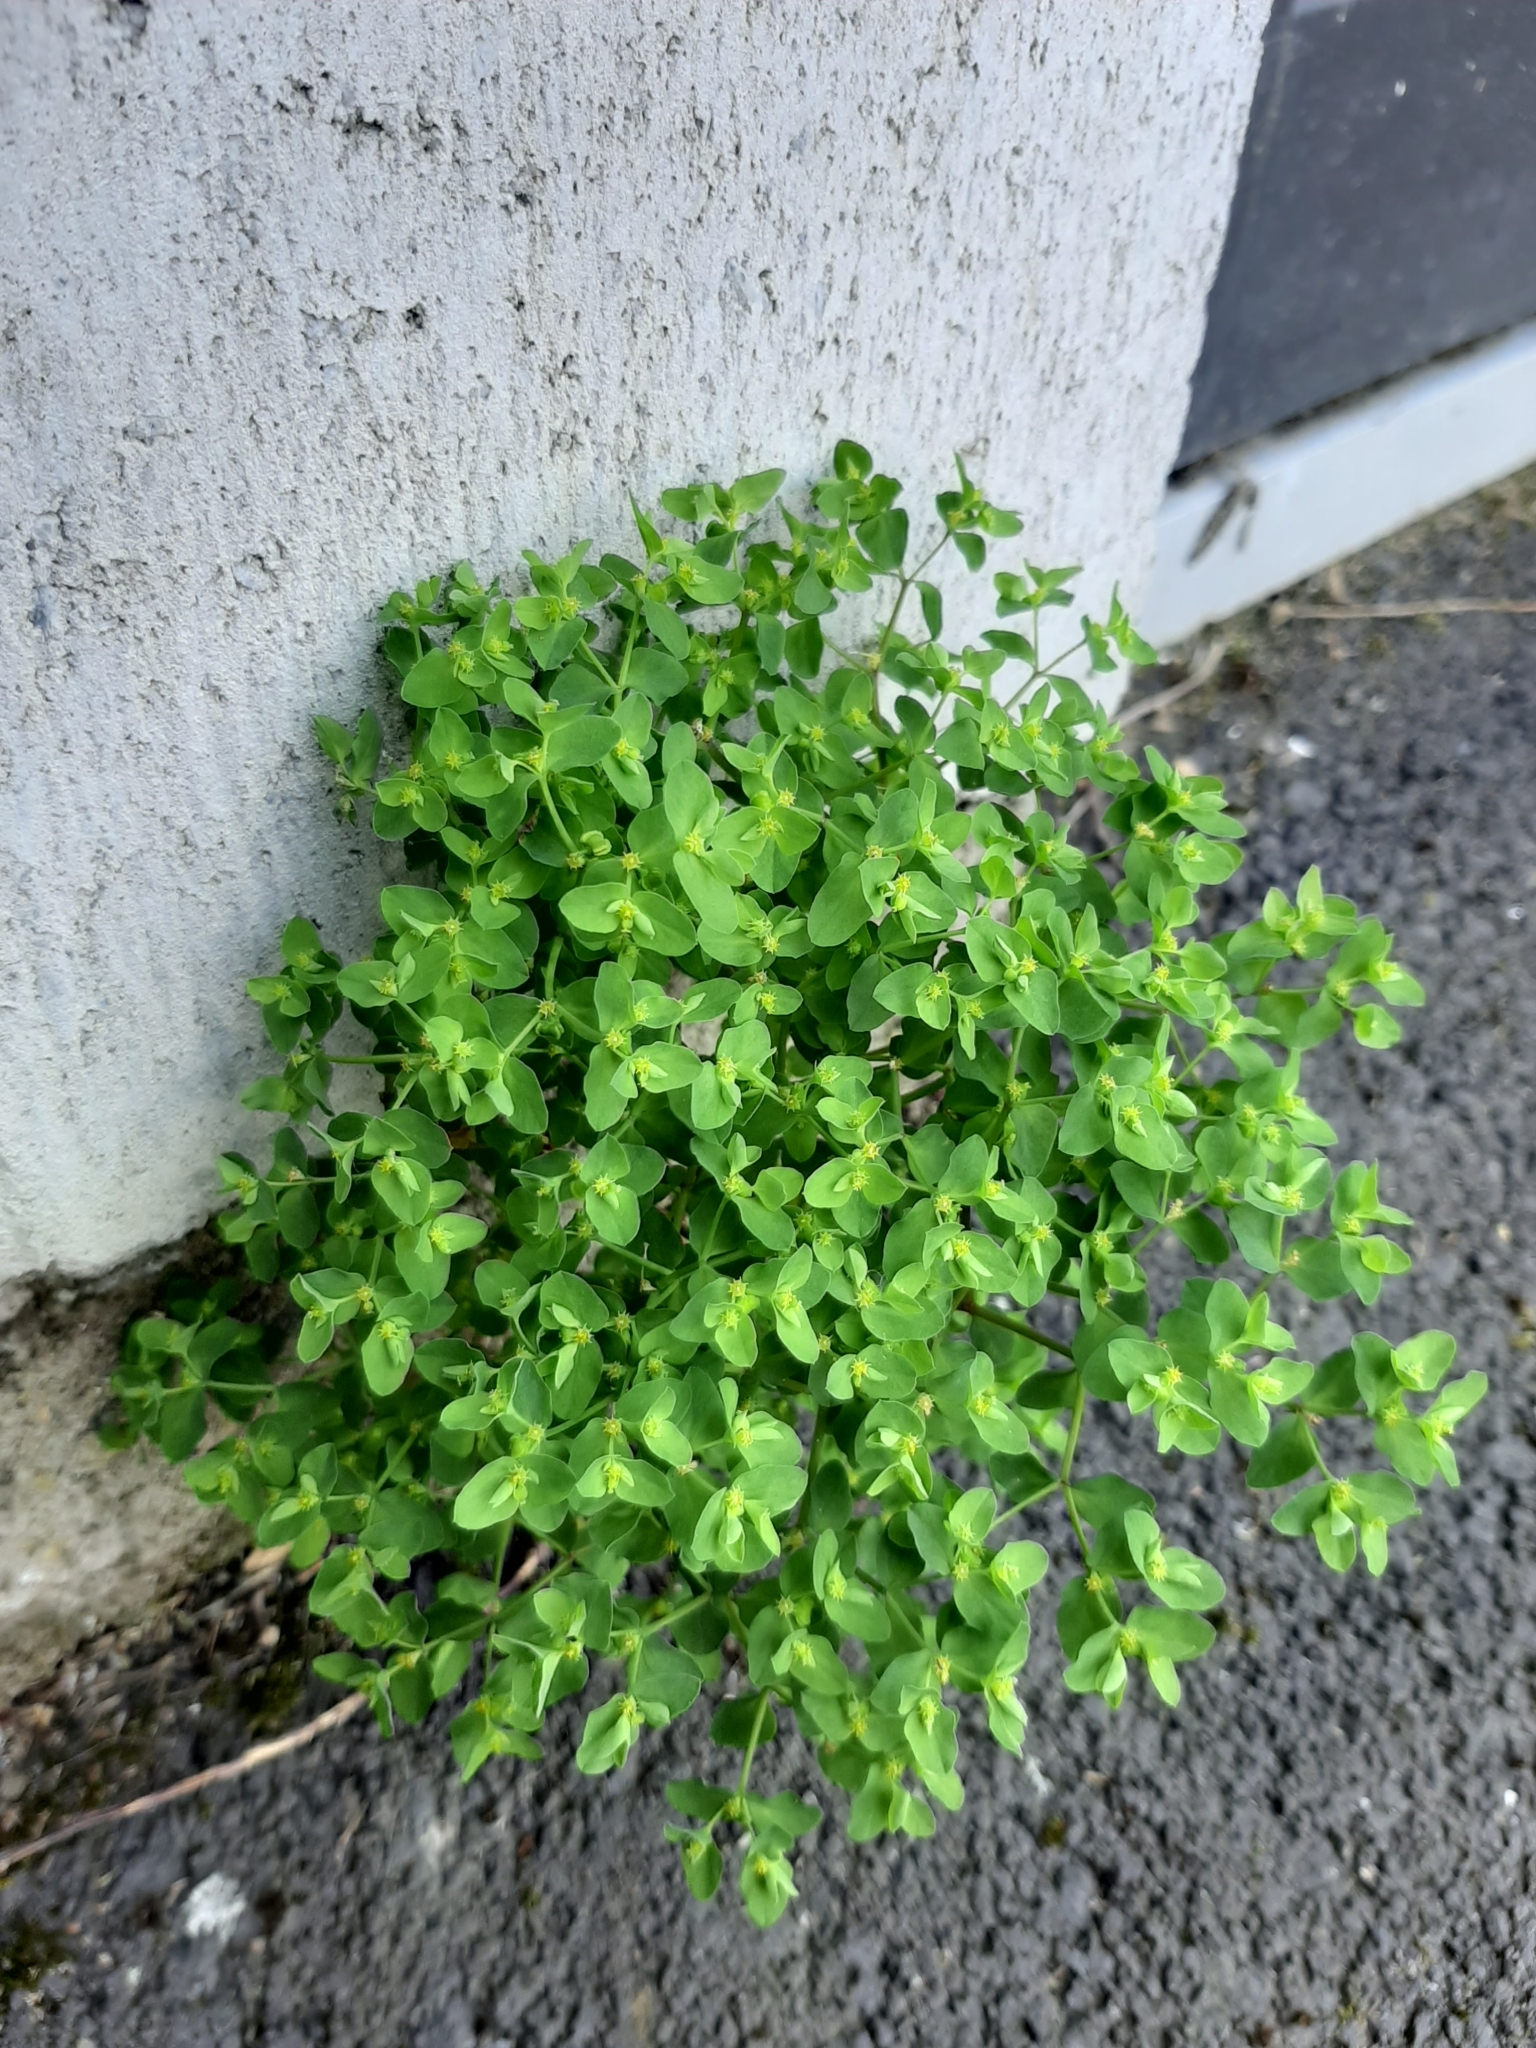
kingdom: Plantae
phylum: Tracheophyta
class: Magnoliopsida
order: Malpighiales
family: Euphorbiaceae
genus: Euphorbia
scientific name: Euphorbia peplus
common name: Petty spurge
